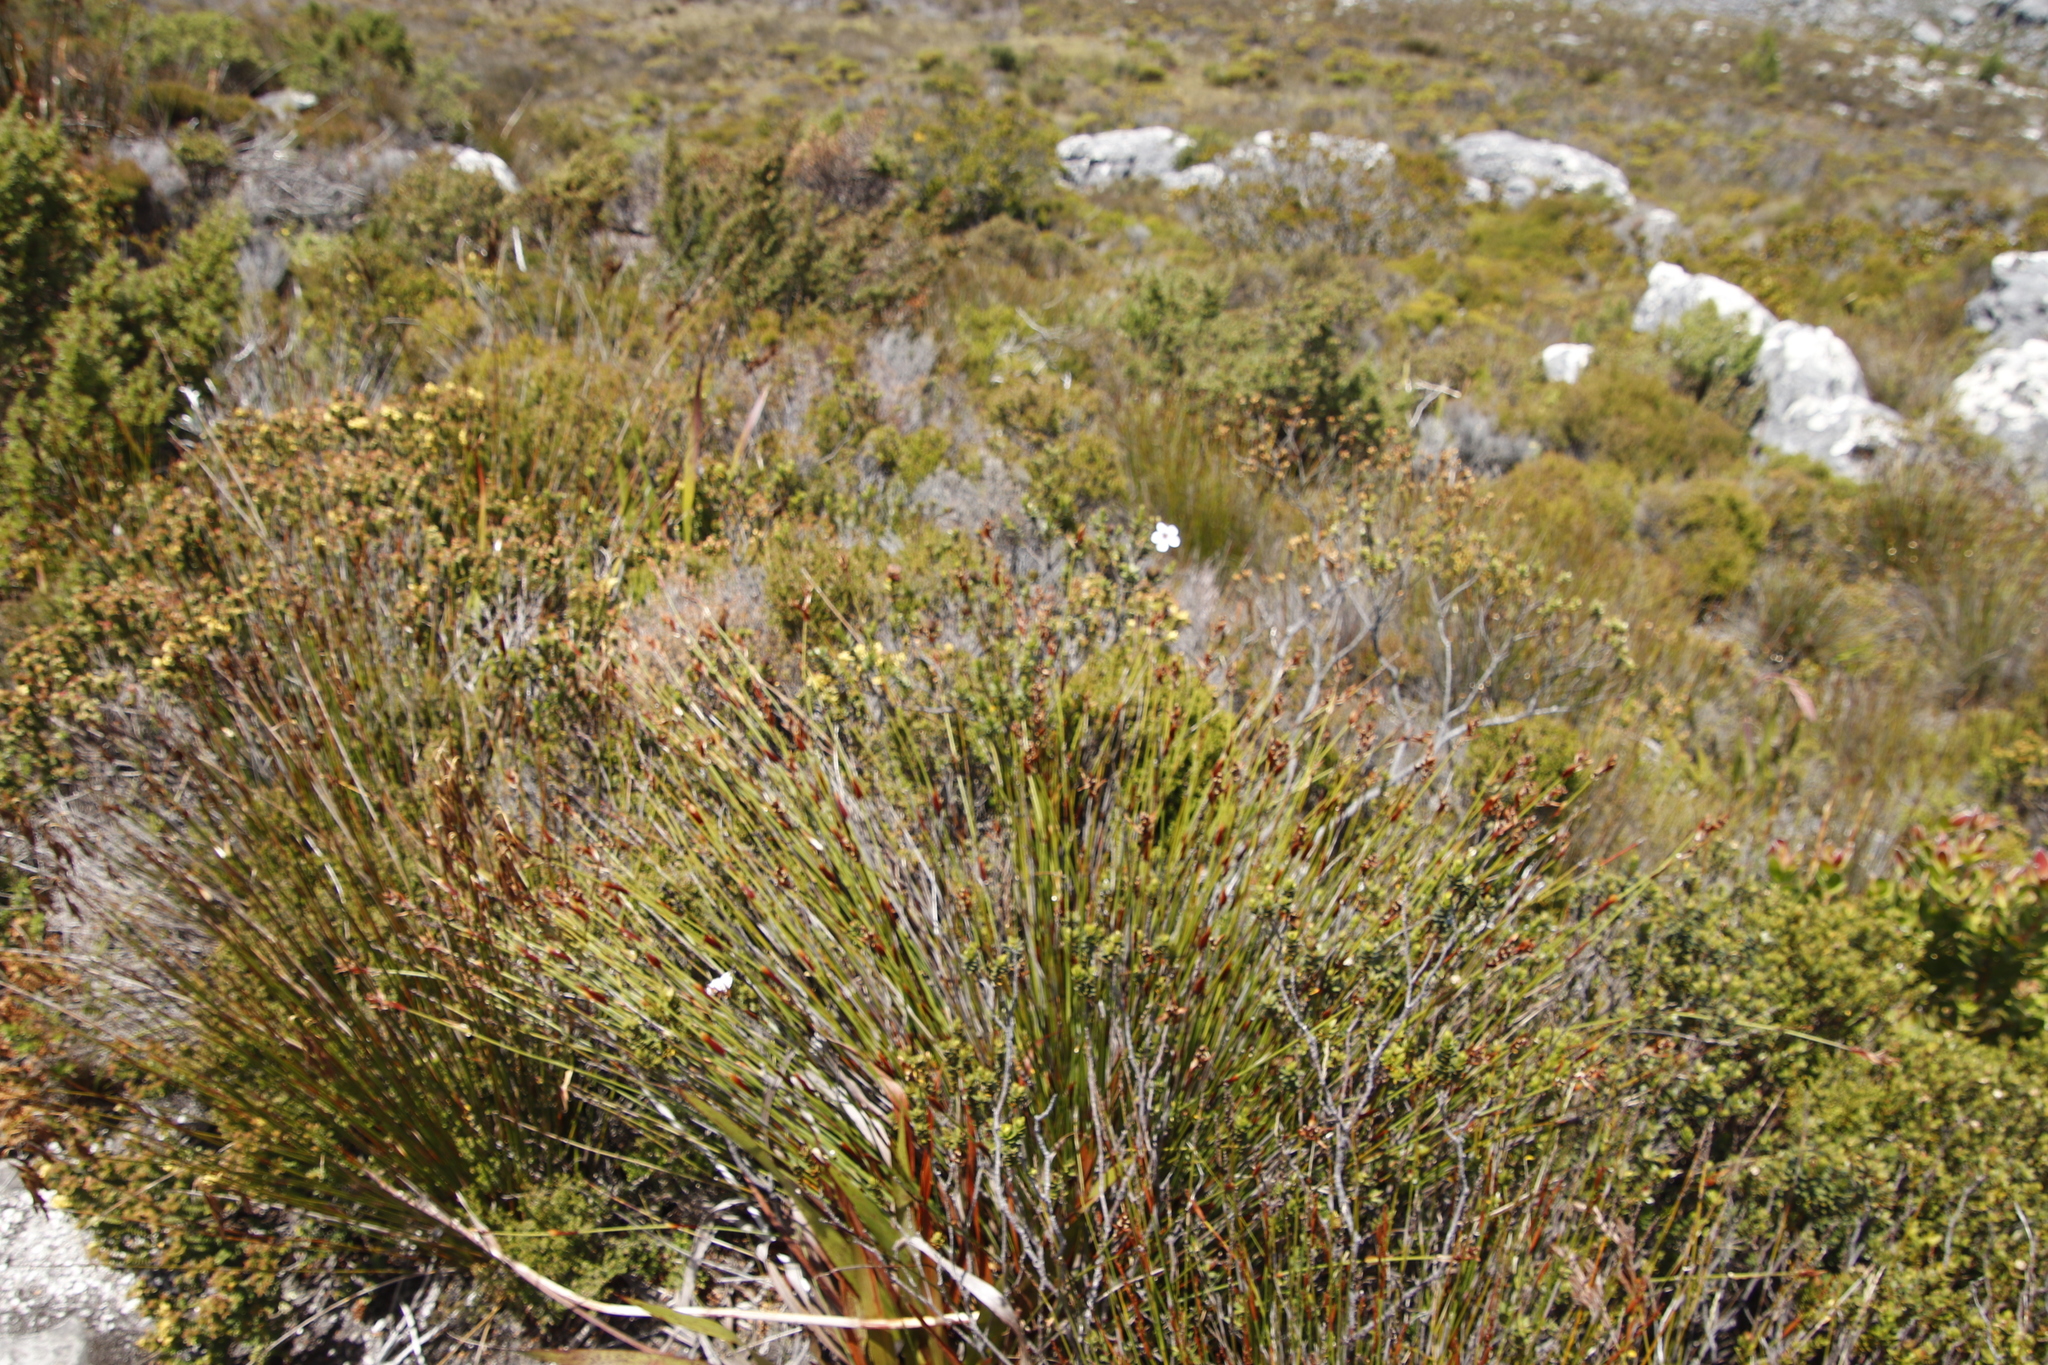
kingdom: Plantae
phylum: Tracheophyta
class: Magnoliopsida
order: Sapindales
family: Rutaceae
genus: Adenandra
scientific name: Adenandra villosa
